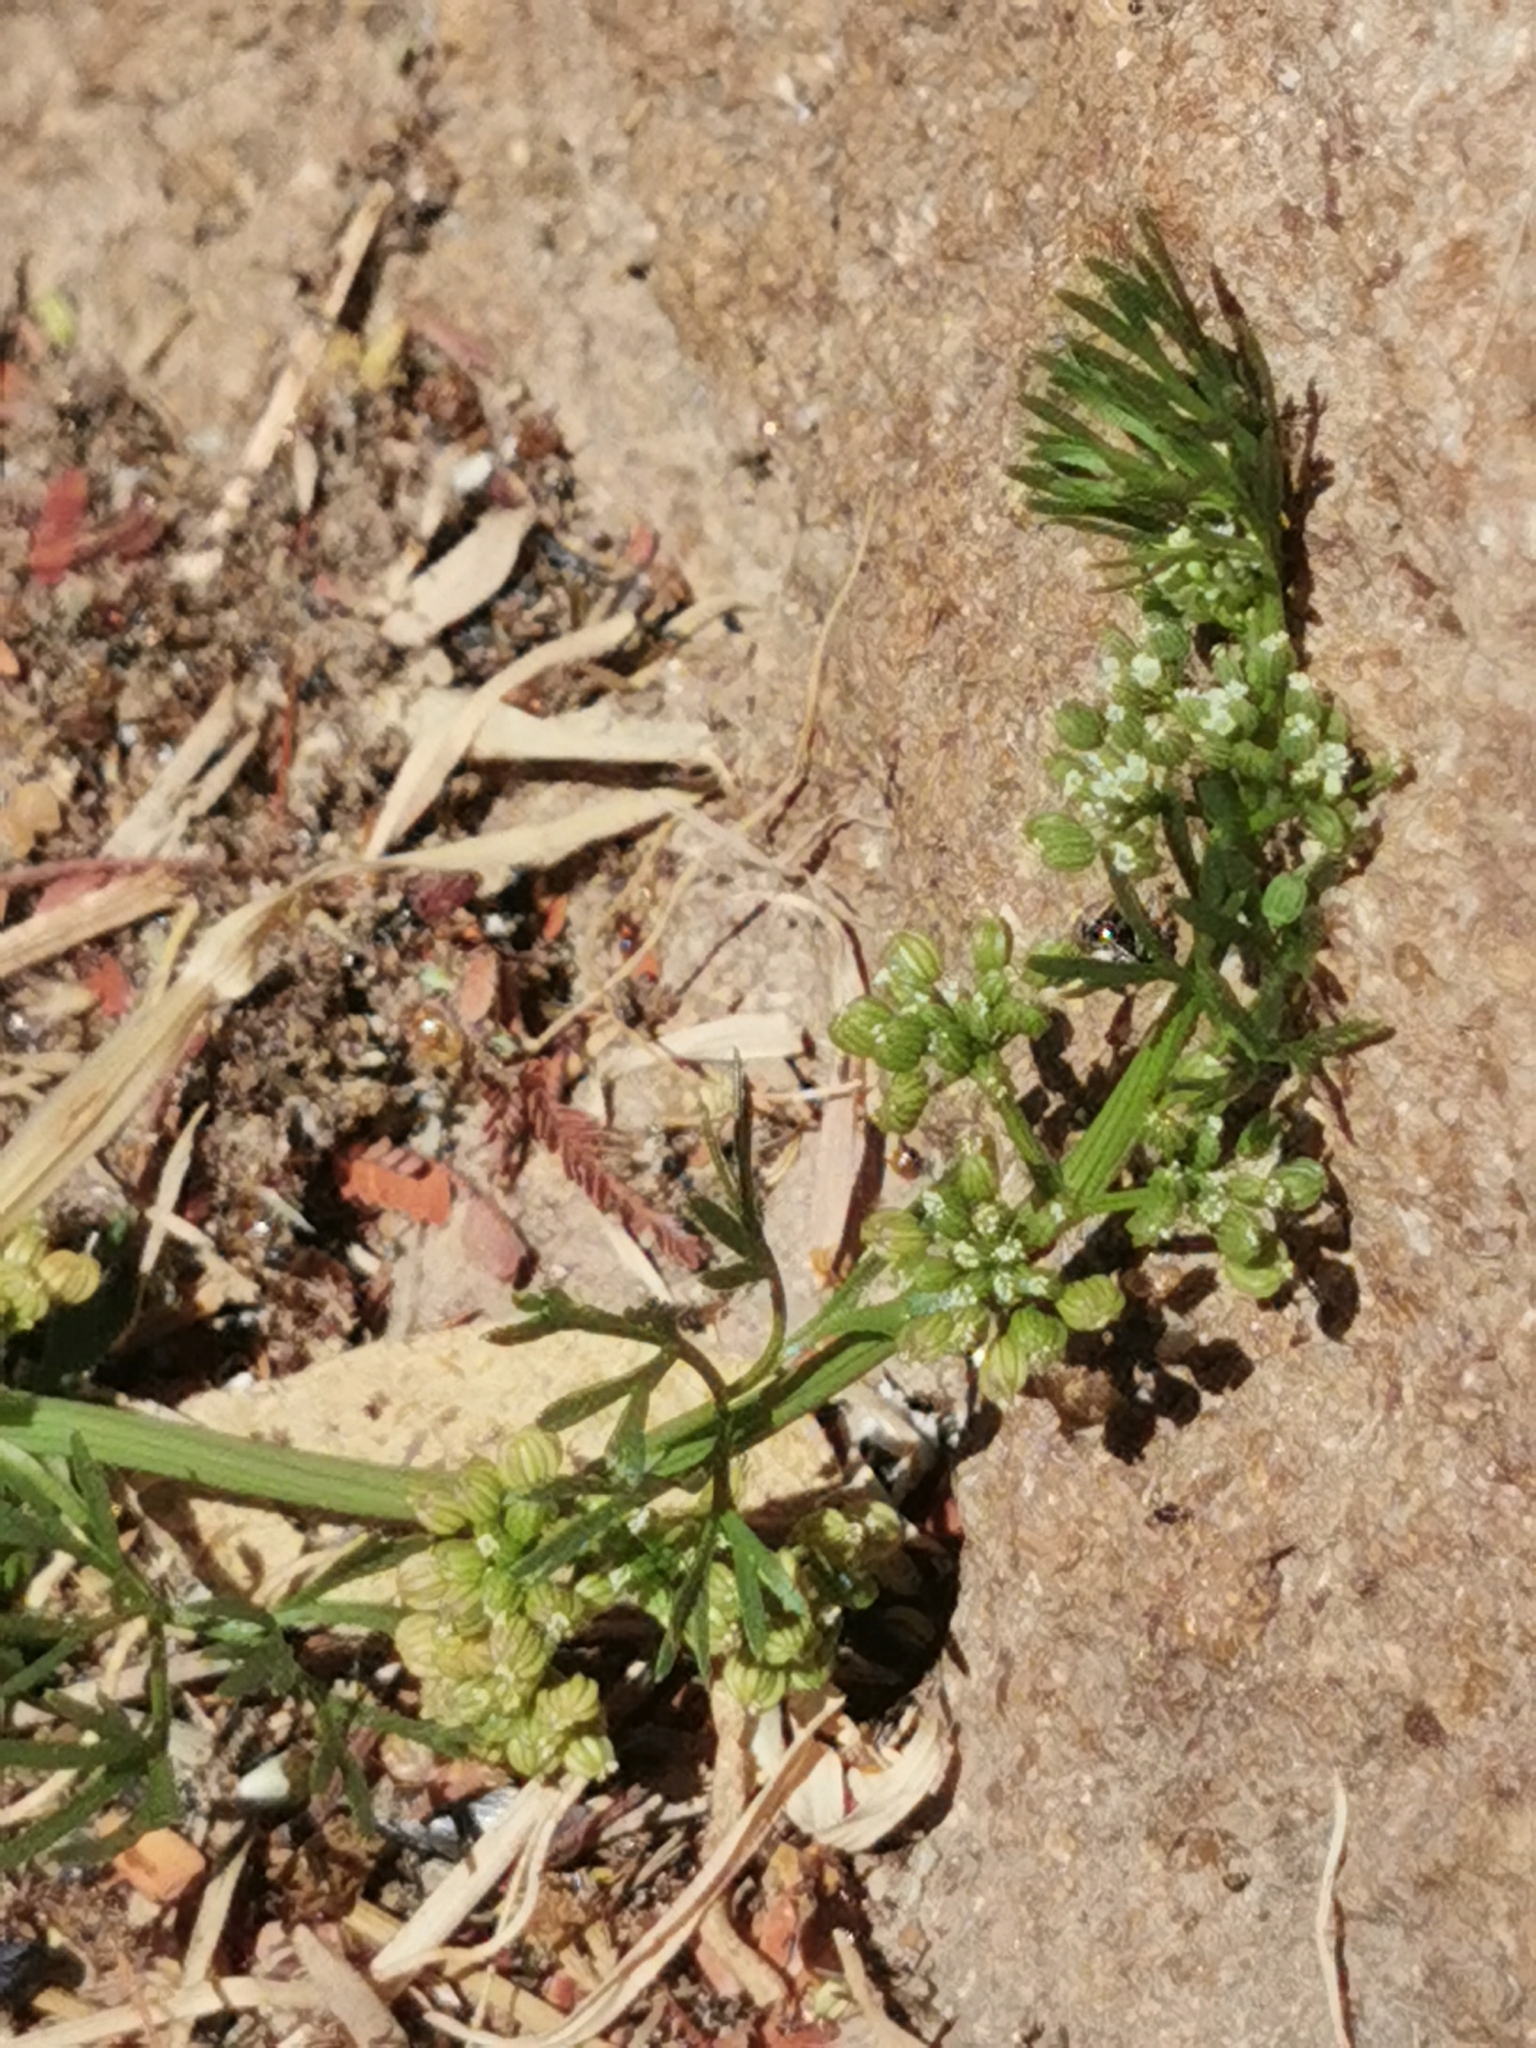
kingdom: Plantae
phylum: Tracheophyta
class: Magnoliopsida
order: Apiales
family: Apiaceae
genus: Cyclospermum
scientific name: Cyclospermum leptophyllum
